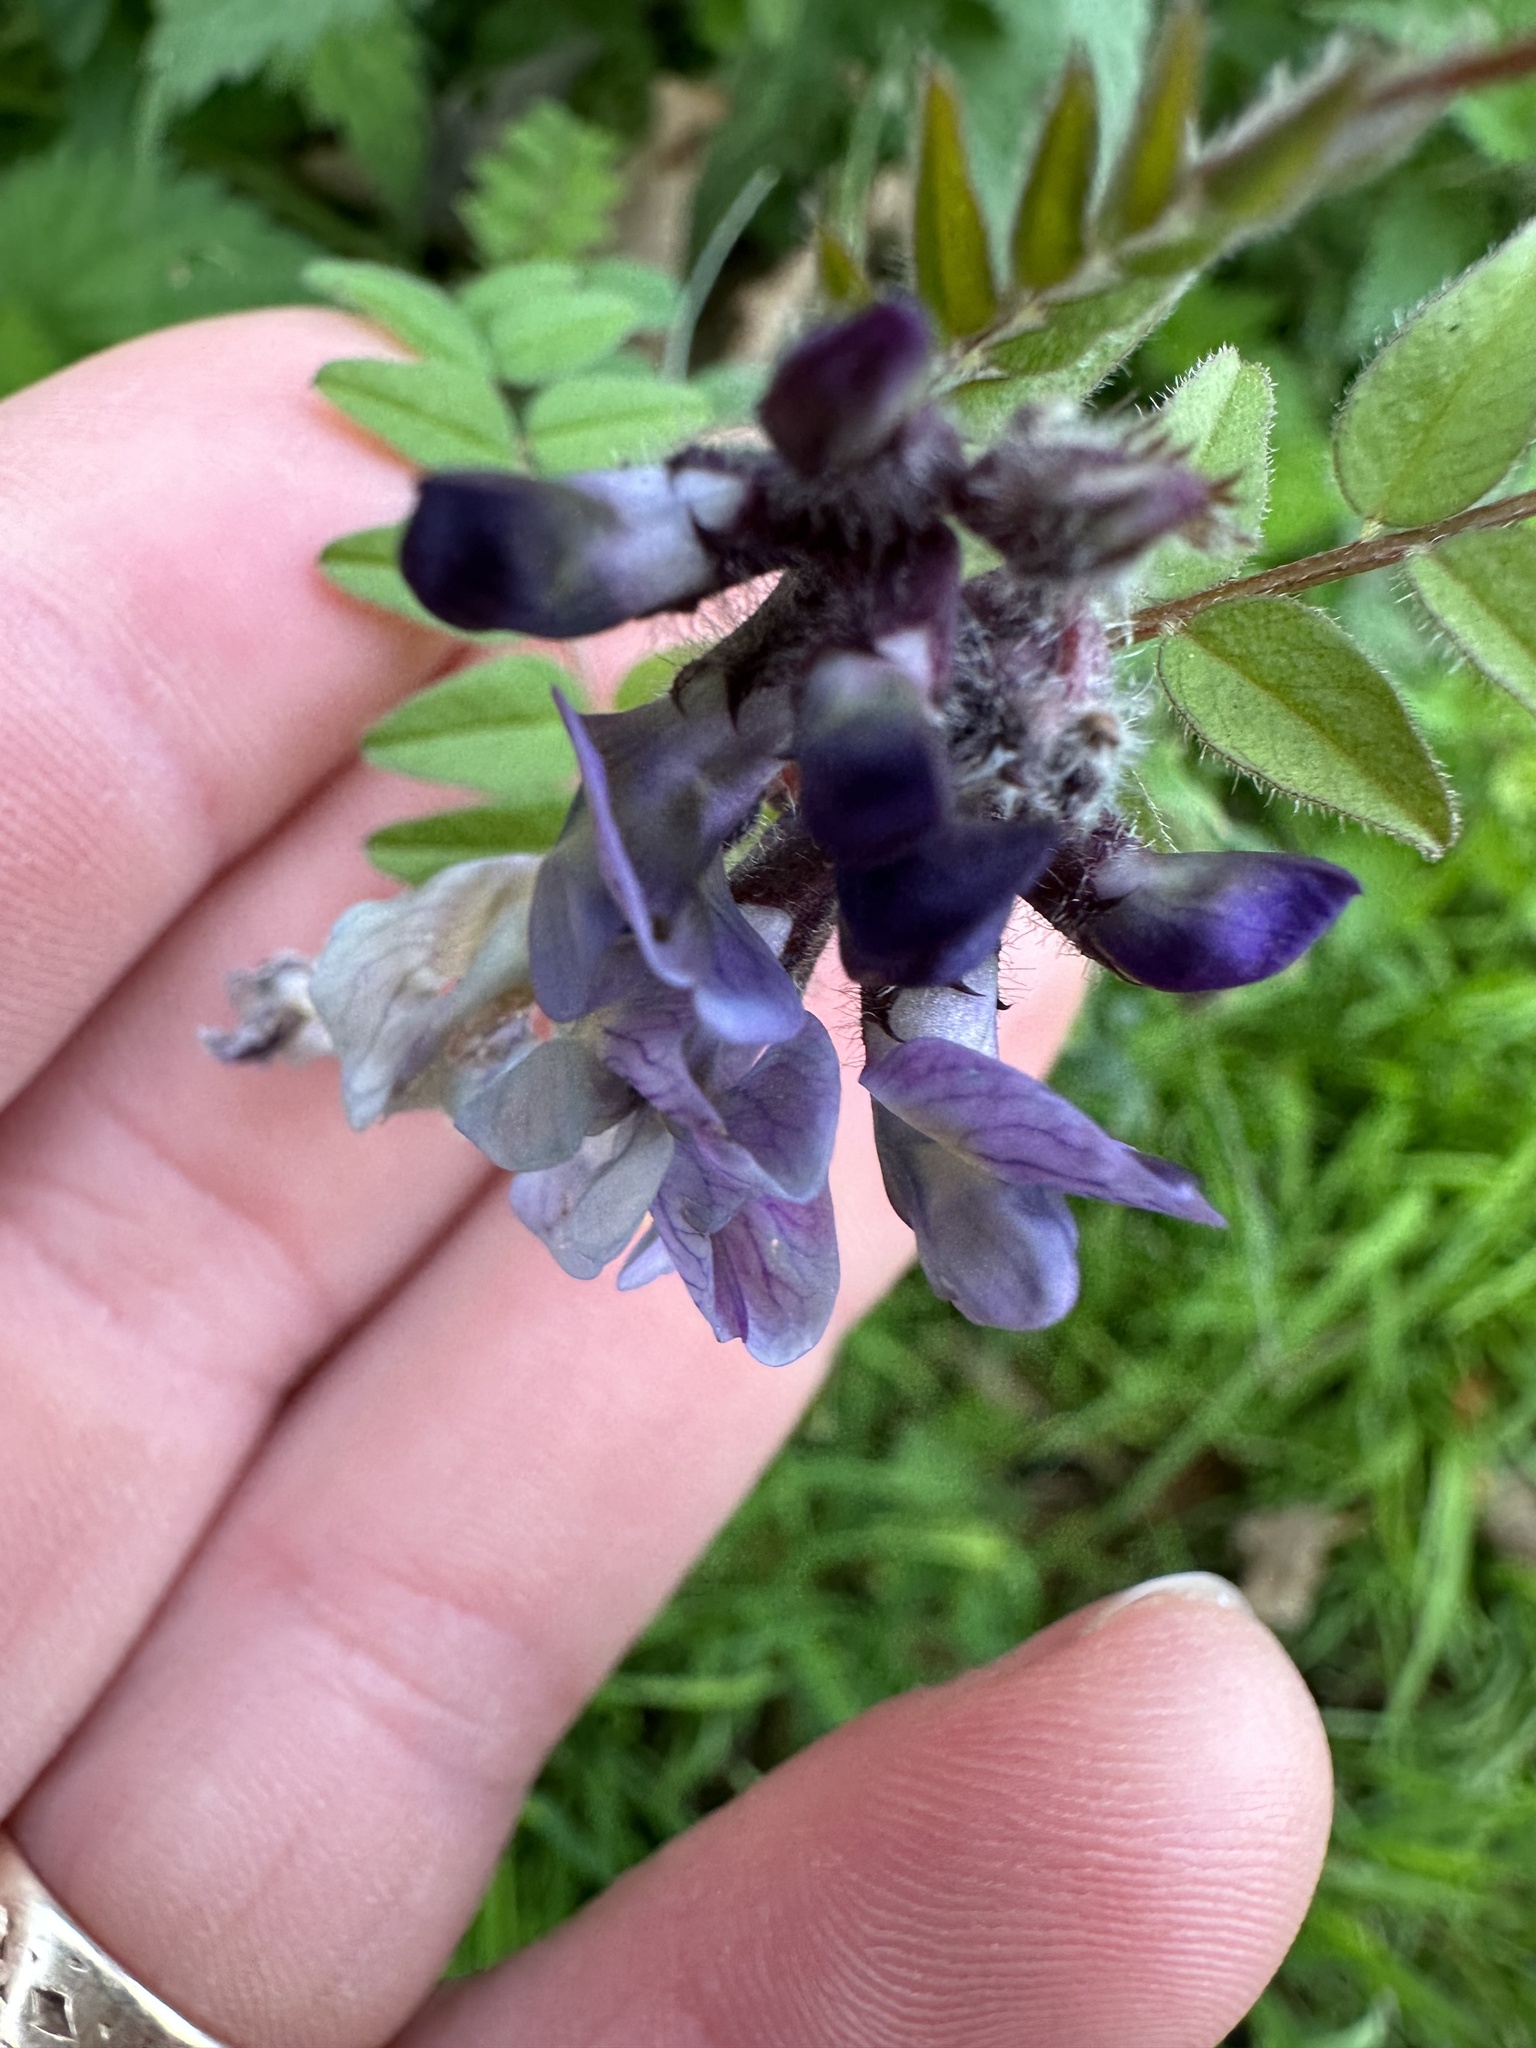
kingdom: Plantae
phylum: Tracheophyta
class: Magnoliopsida
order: Fabales
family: Fabaceae
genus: Vicia
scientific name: Vicia sepium
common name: Bush vetch
